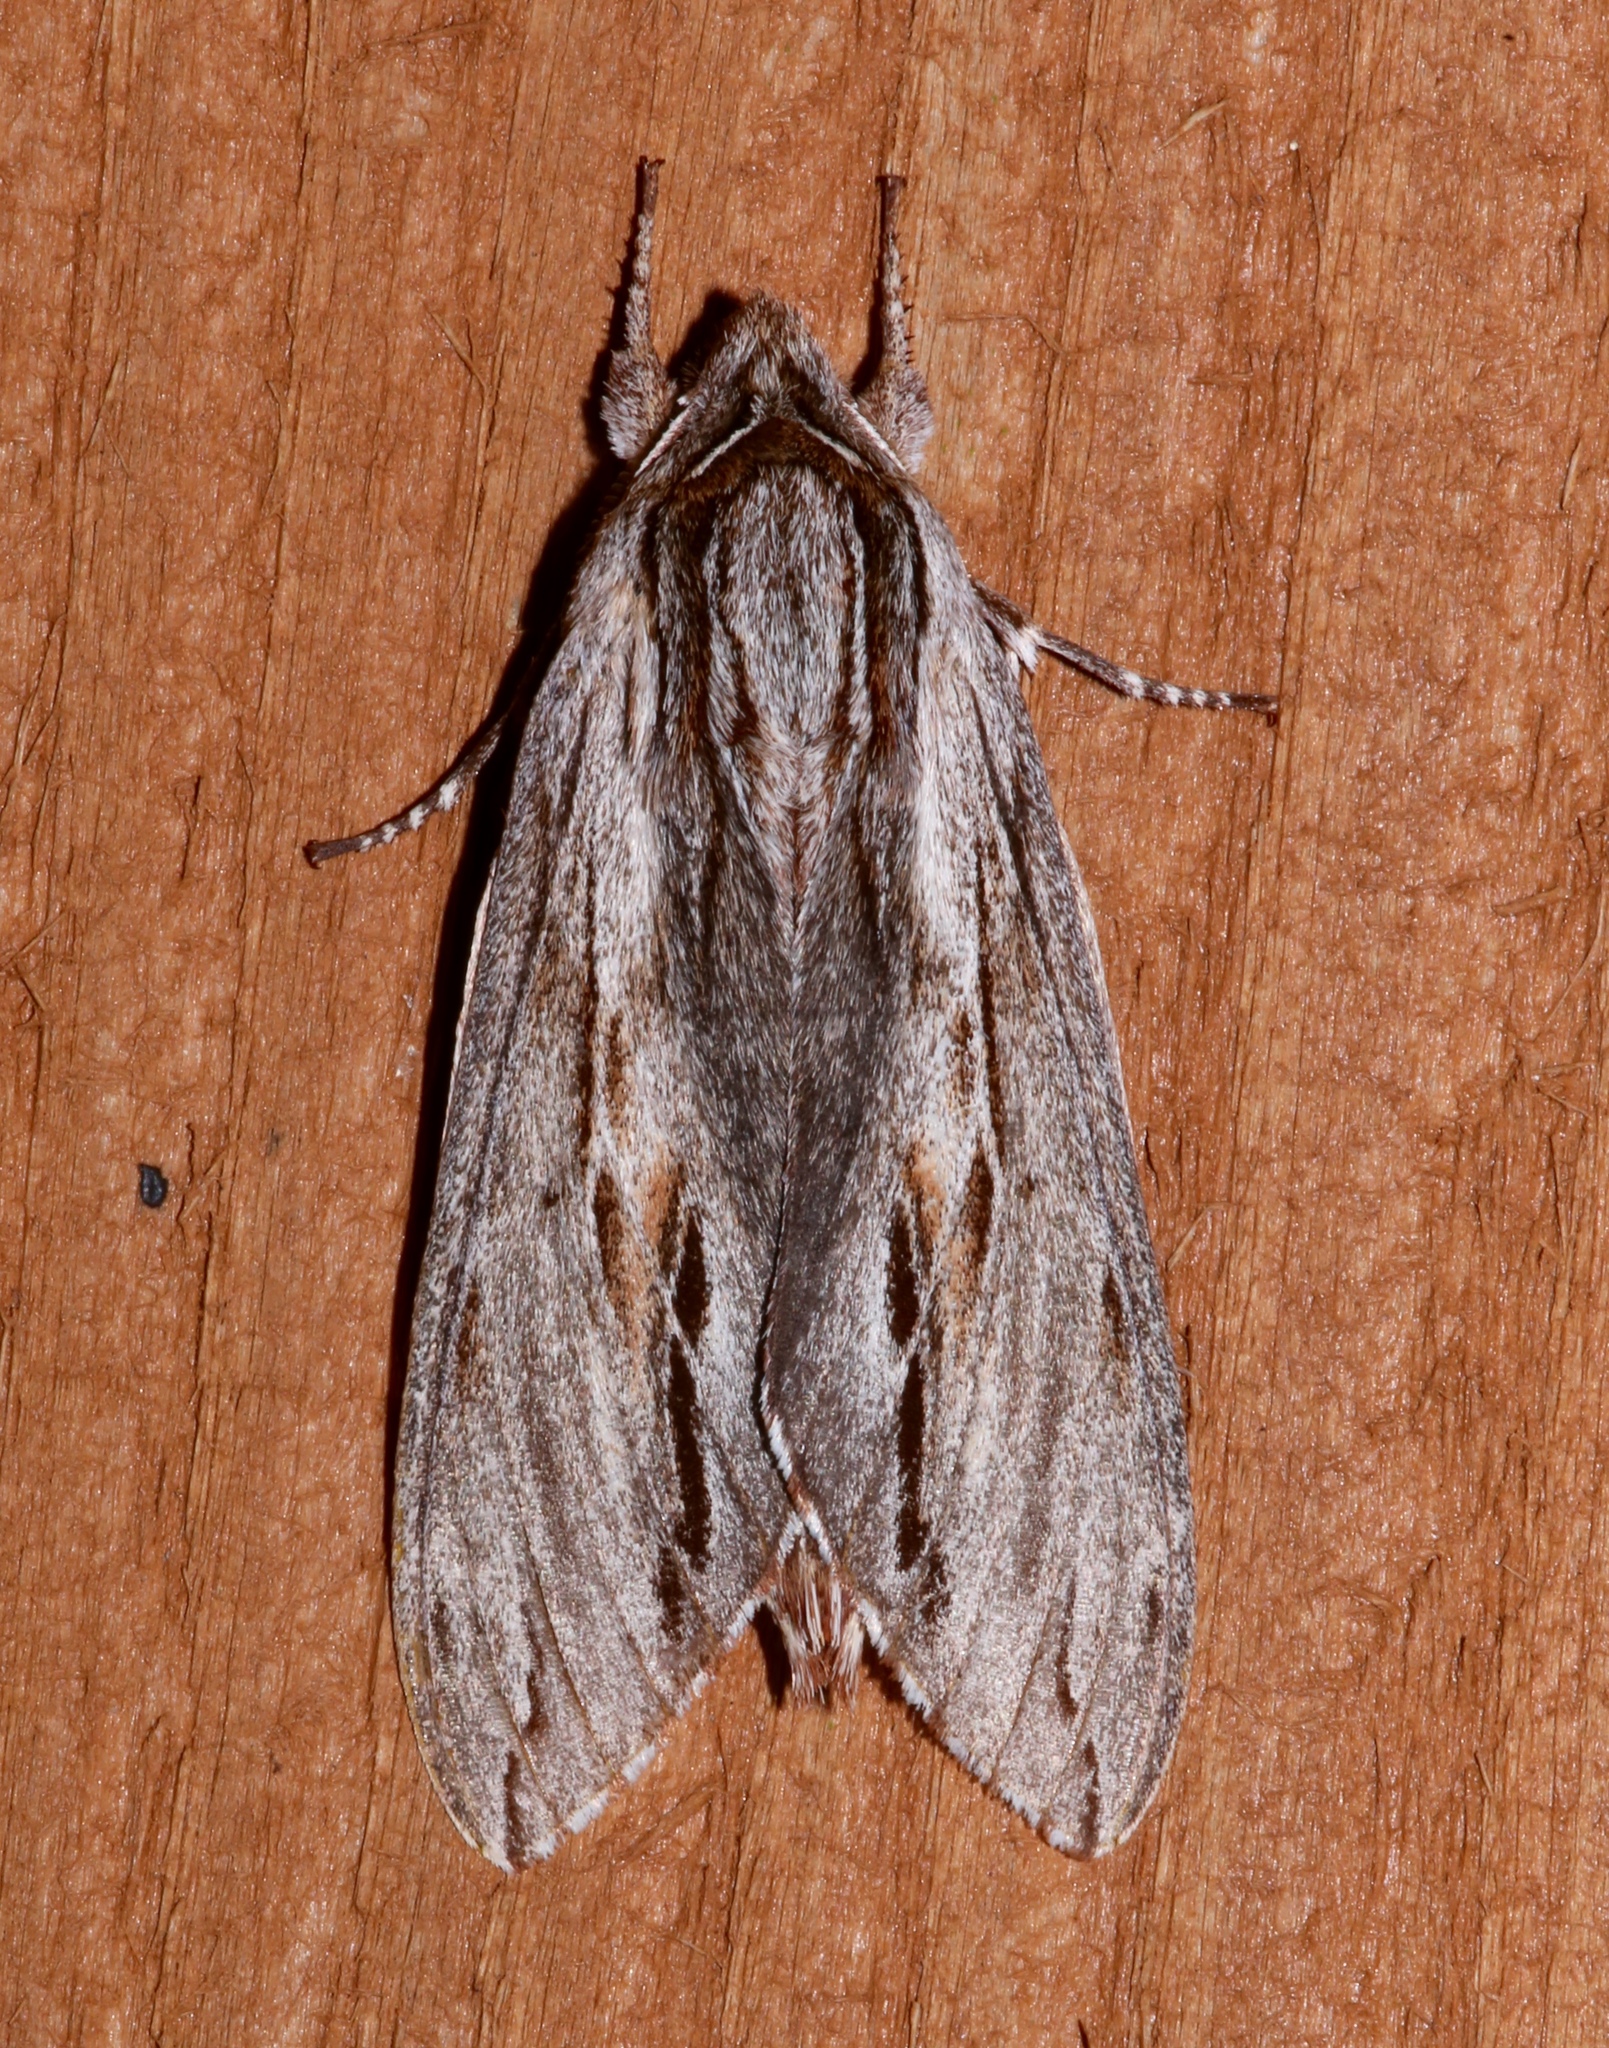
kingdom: Animalia
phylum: Arthropoda
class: Insecta
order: Lepidoptera
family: Sphingidae
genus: Isoparce
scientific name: Isoparce cupressi
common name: Cypress sphinx
